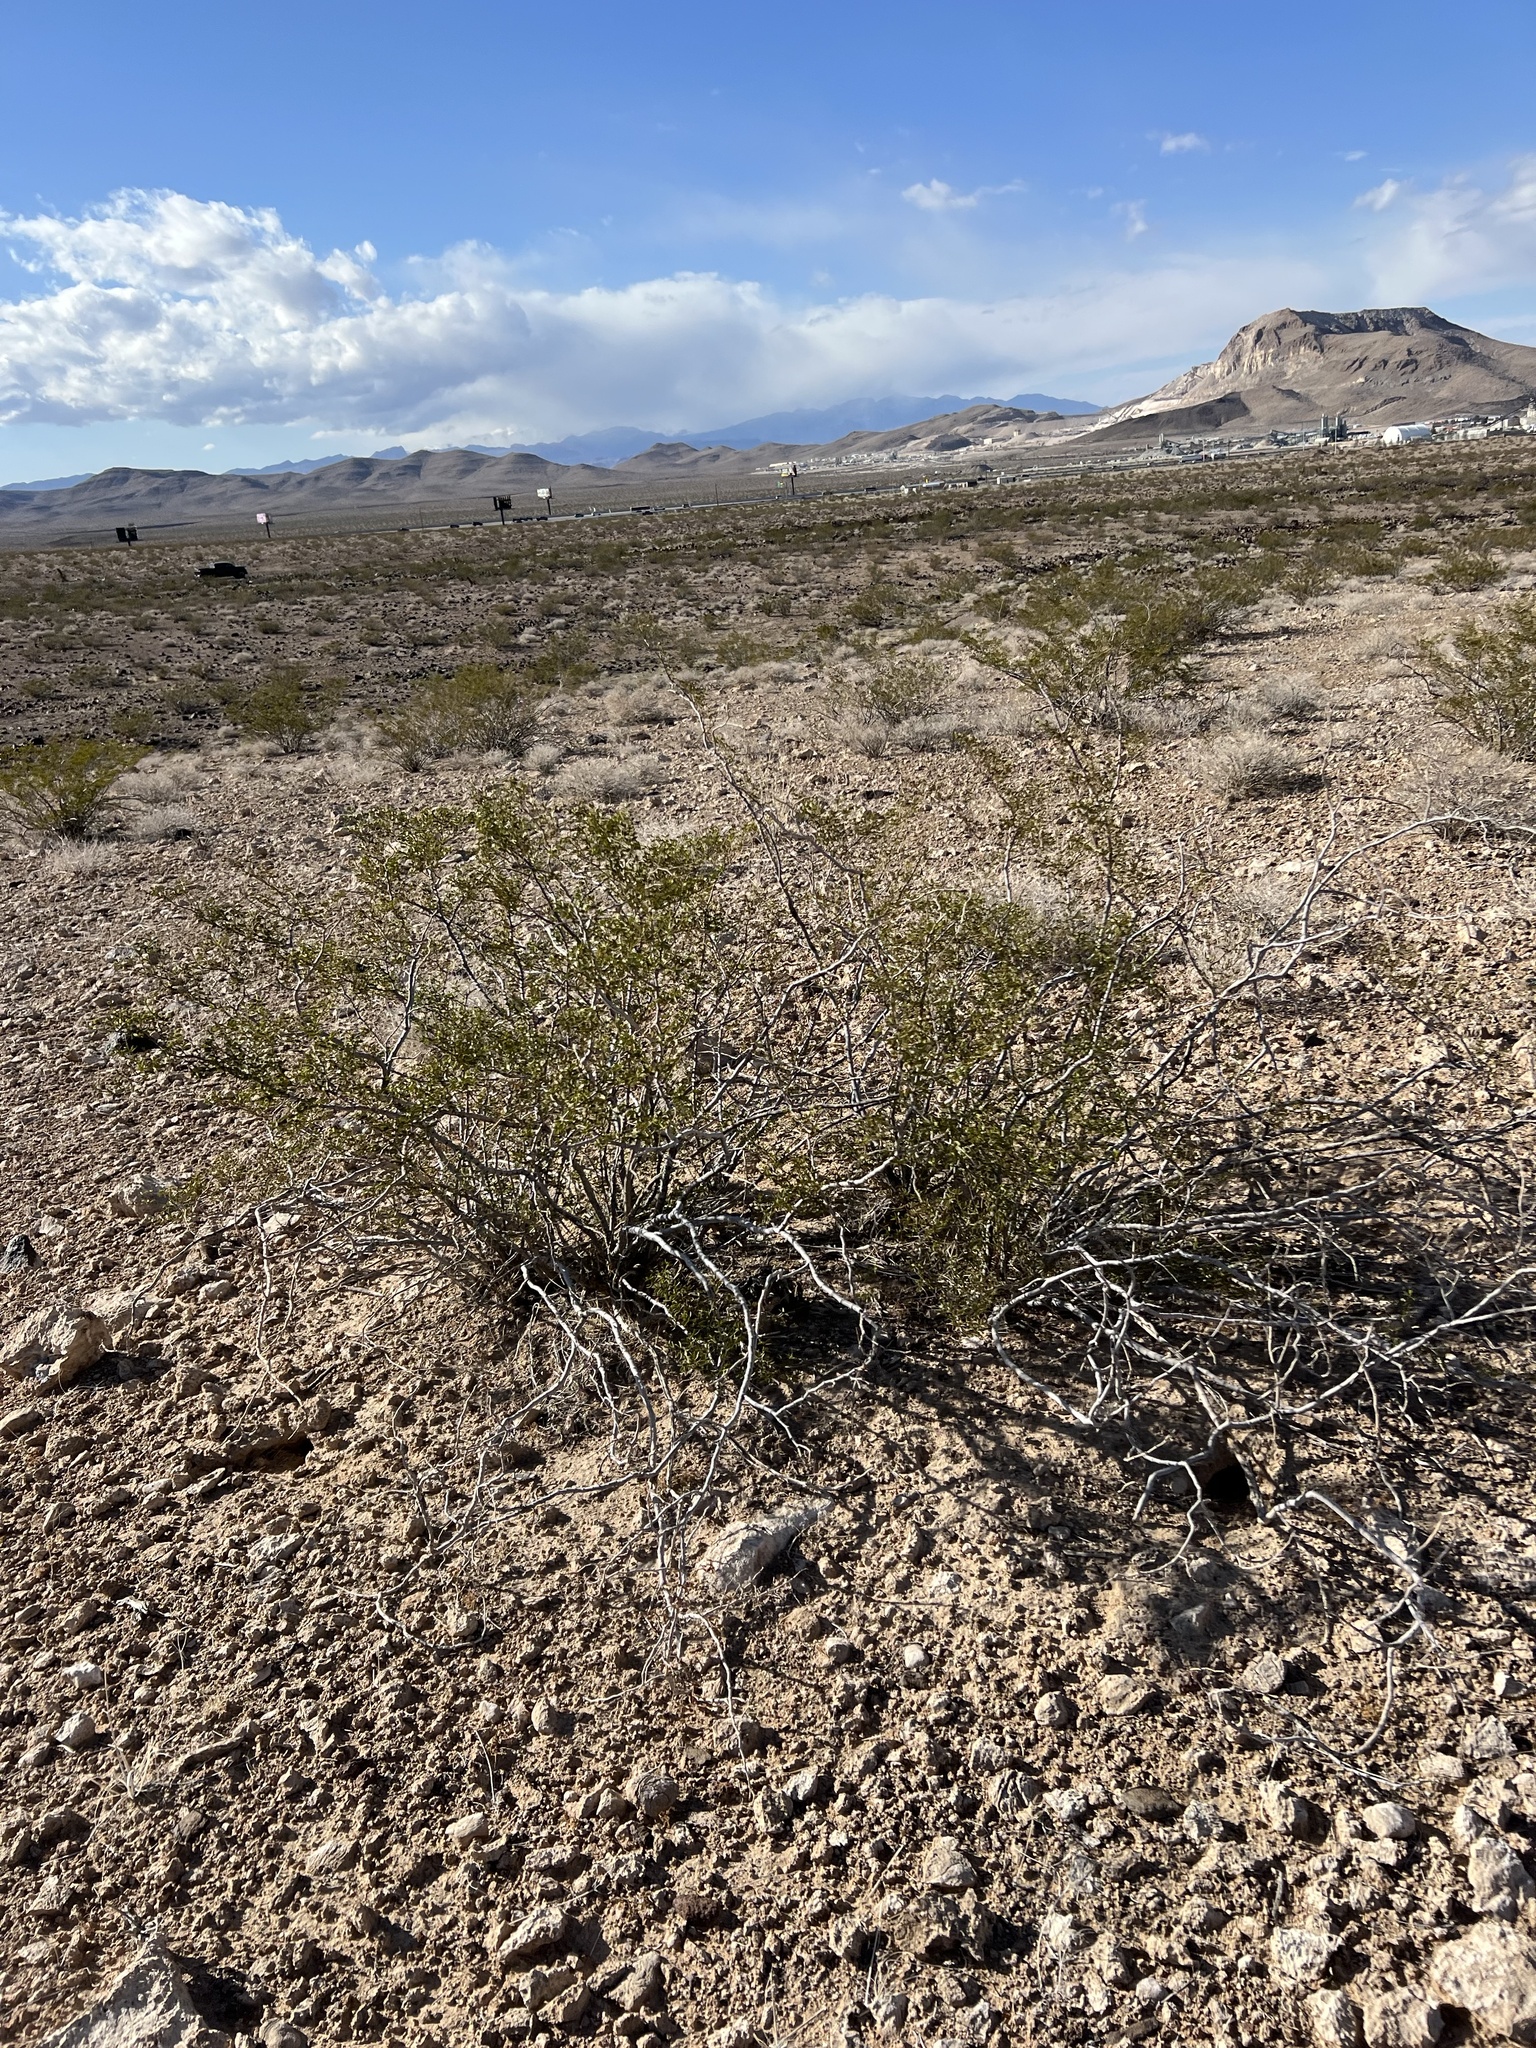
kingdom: Plantae
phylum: Tracheophyta
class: Magnoliopsida
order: Zygophyllales
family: Zygophyllaceae
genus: Larrea
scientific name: Larrea tridentata
